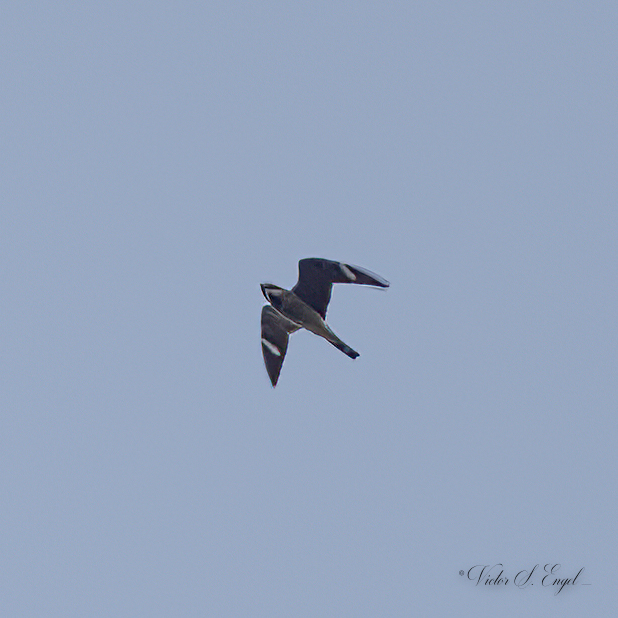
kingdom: Animalia
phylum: Chordata
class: Aves
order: Caprimulgiformes
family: Caprimulgidae
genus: Chordeiles
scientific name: Chordeiles minor
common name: Common nighthawk
